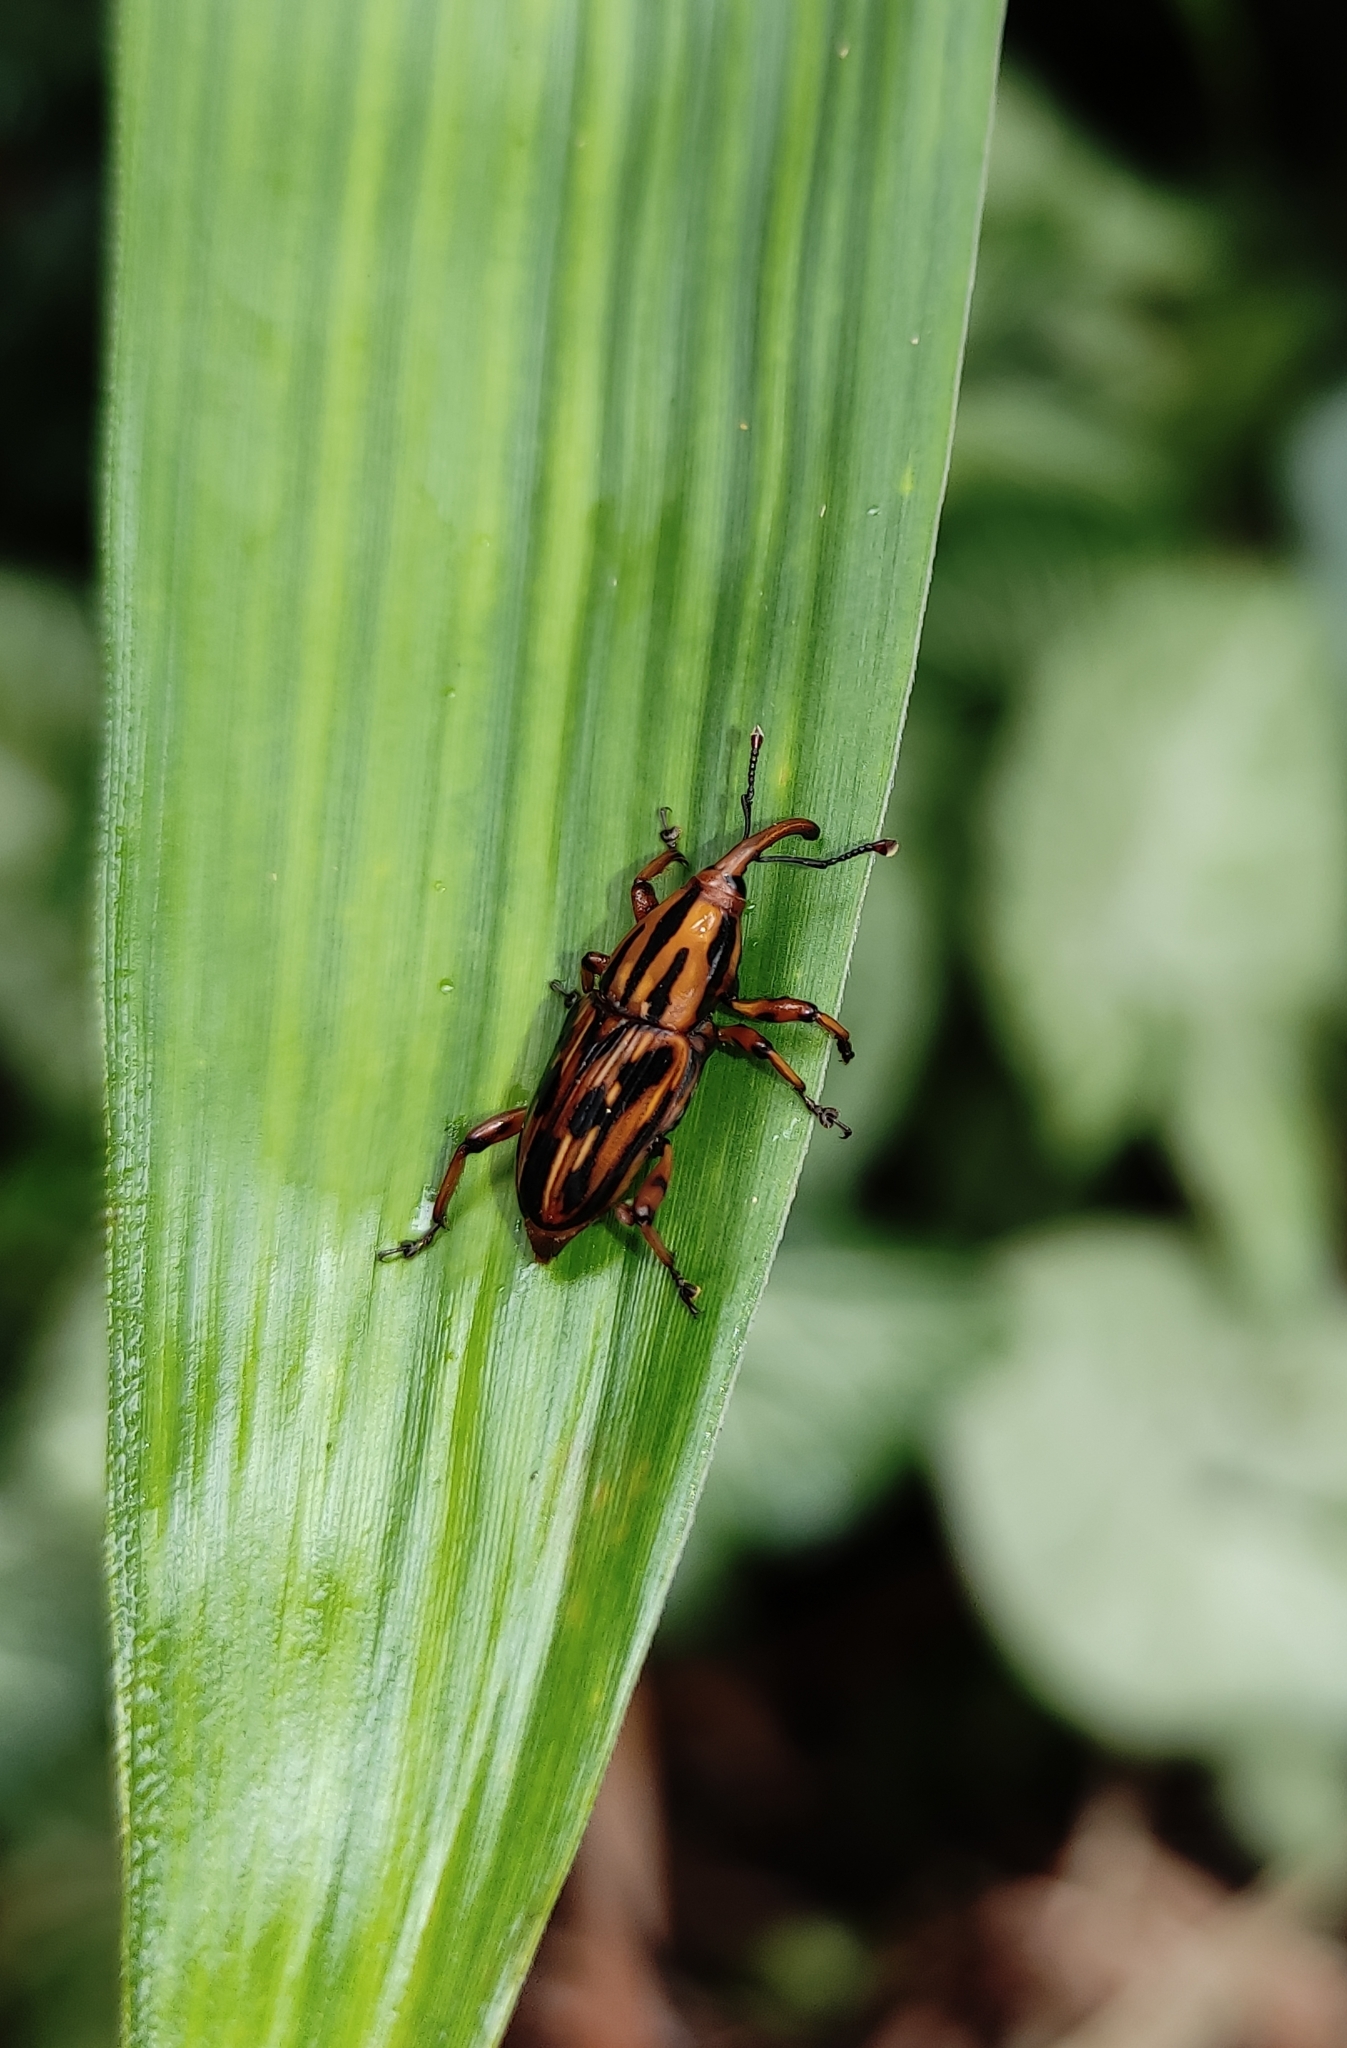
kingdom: Animalia
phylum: Arthropoda
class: Insecta
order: Coleoptera
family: Dryophthoridae
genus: Metamasius
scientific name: Metamasius hemipterus
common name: Weevil
